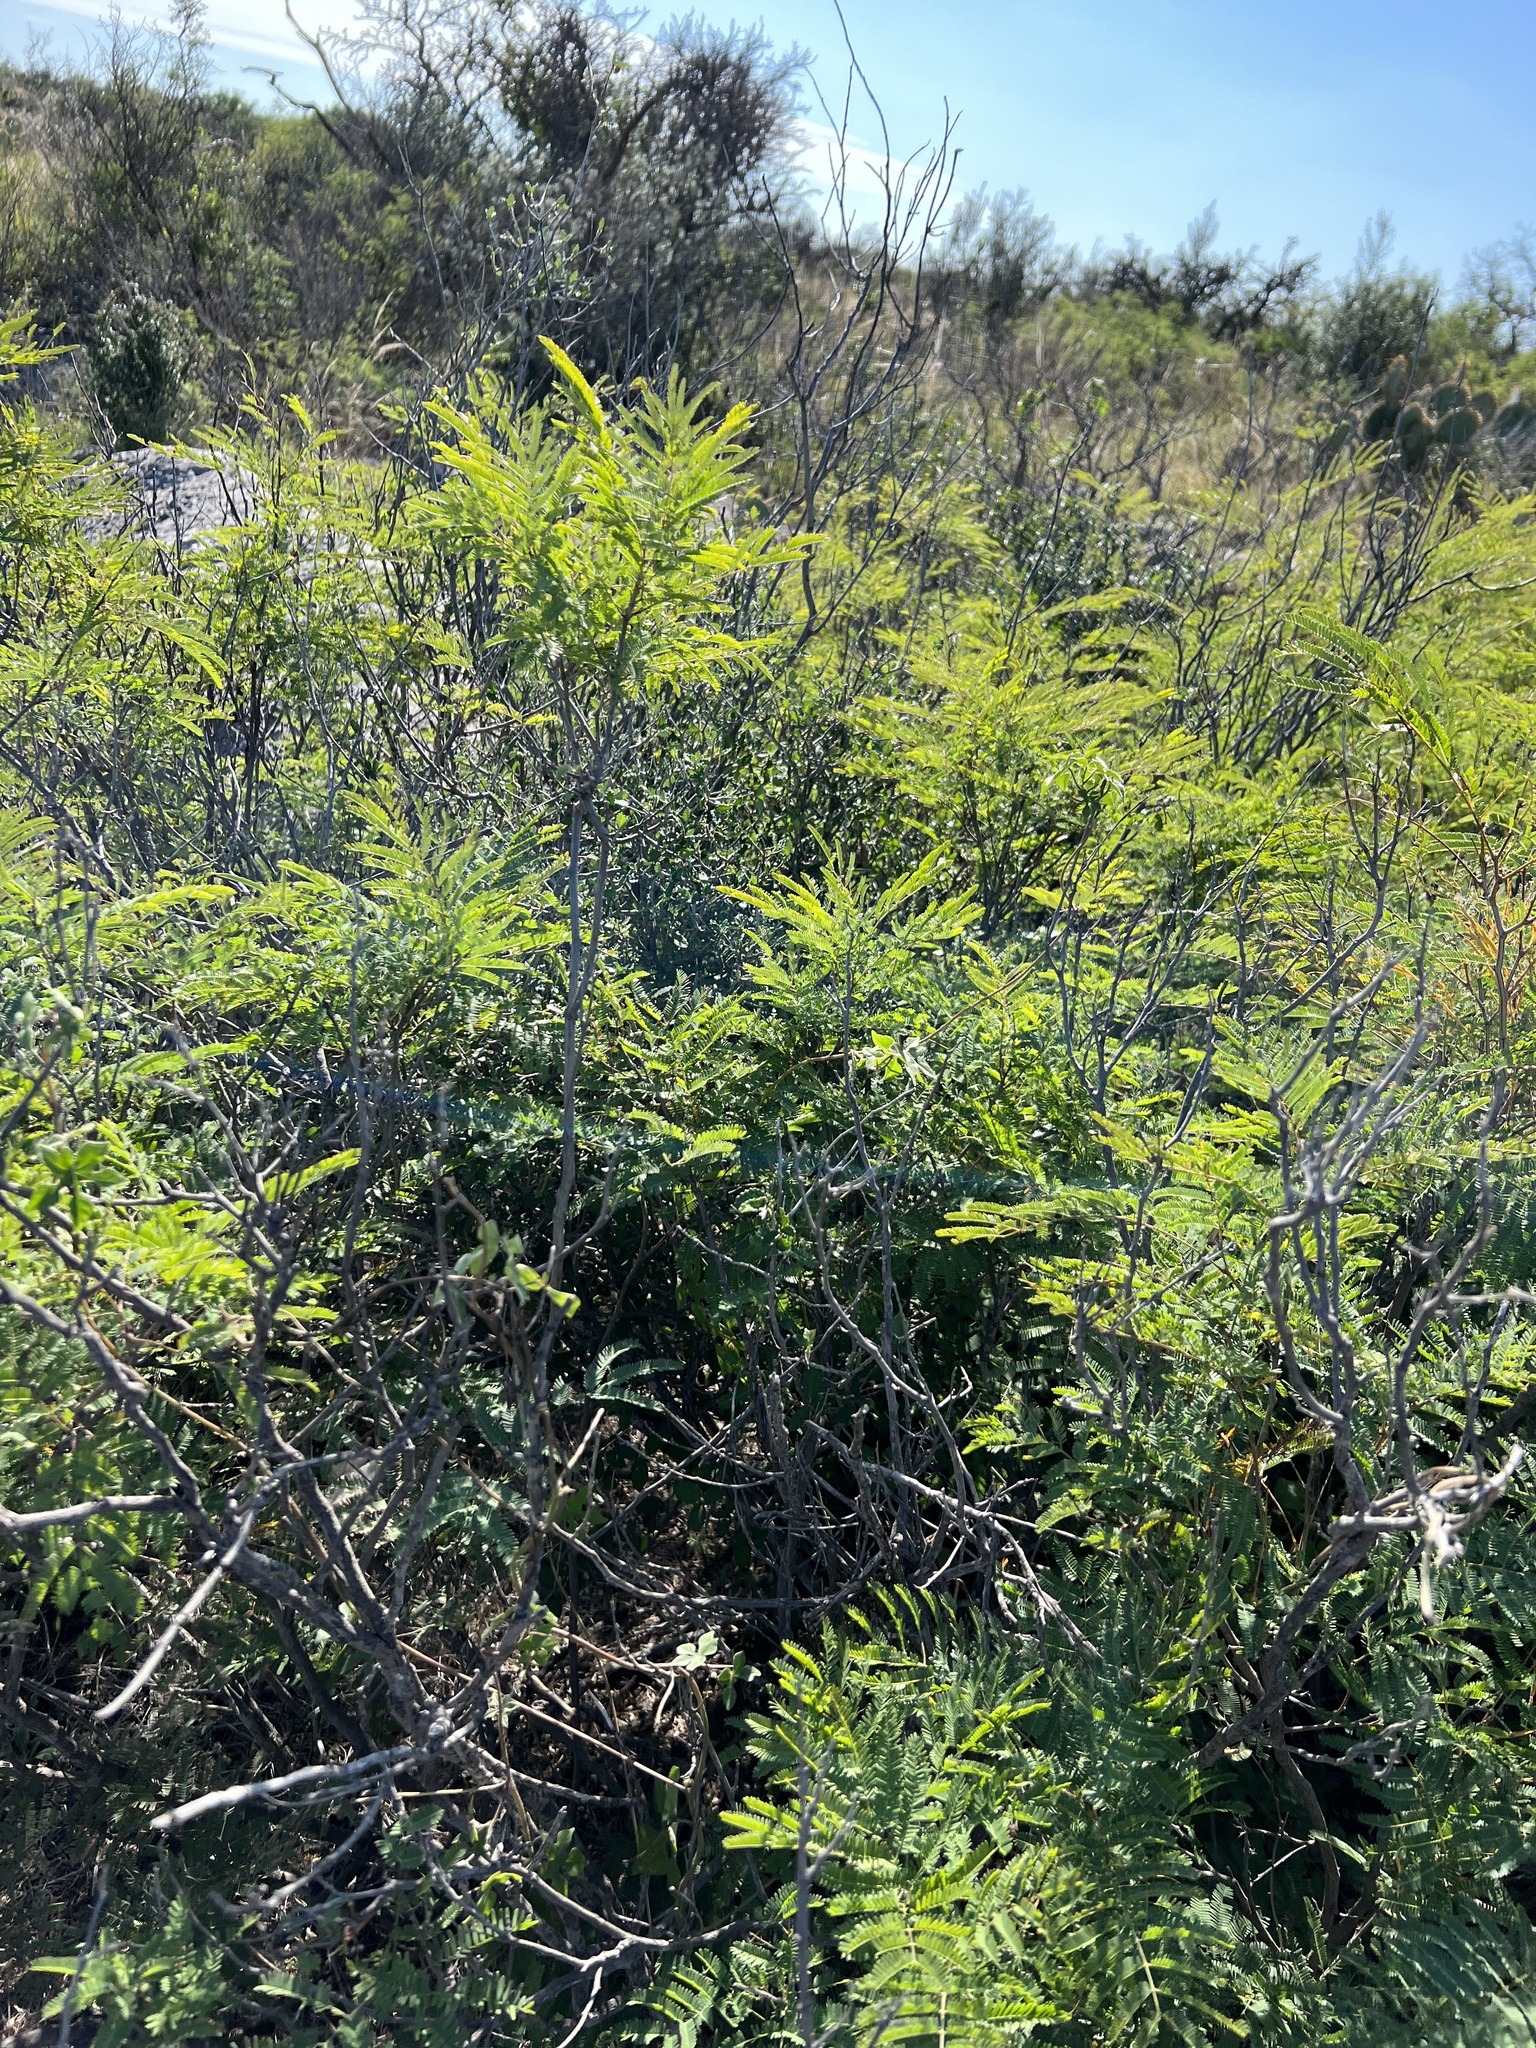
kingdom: Plantae
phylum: Tracheophyta
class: Magnoliopsida
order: Fabales
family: Fabaceae
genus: Senegalia
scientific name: Senegalia berlandieri
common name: Berlandier acacia
